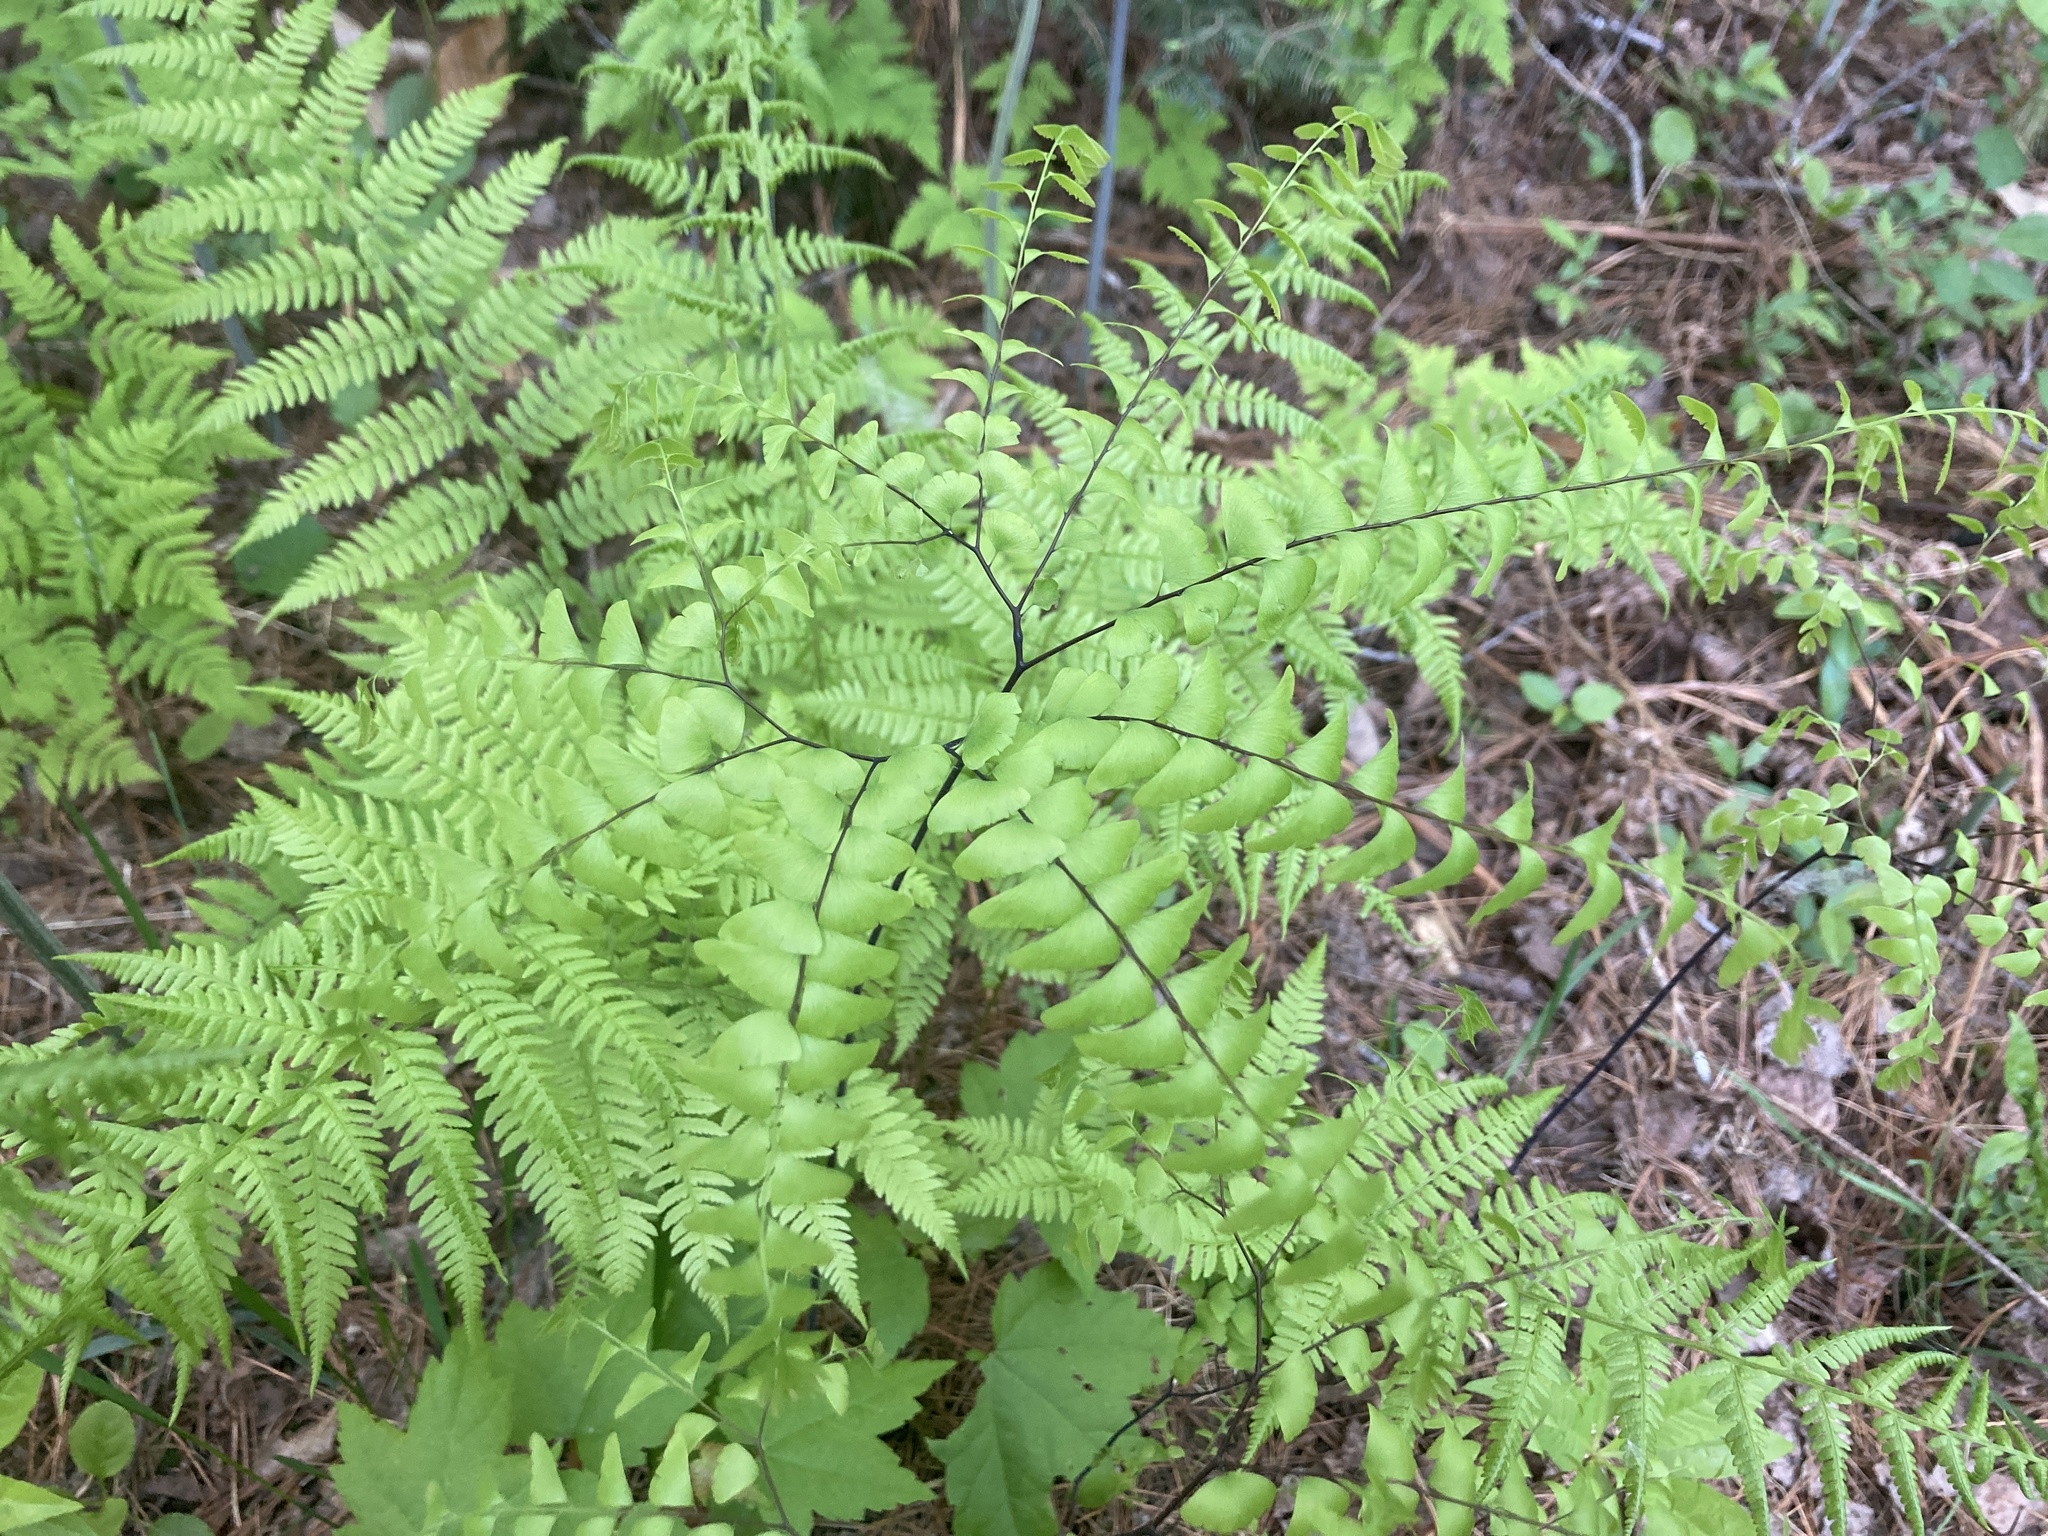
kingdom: Plantae
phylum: Tracheophyta
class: Polypodiopsida
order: Polypodiales
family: Pteridaceae
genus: Adiantum
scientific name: Adiantum pedatum
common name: Five-finger fern
